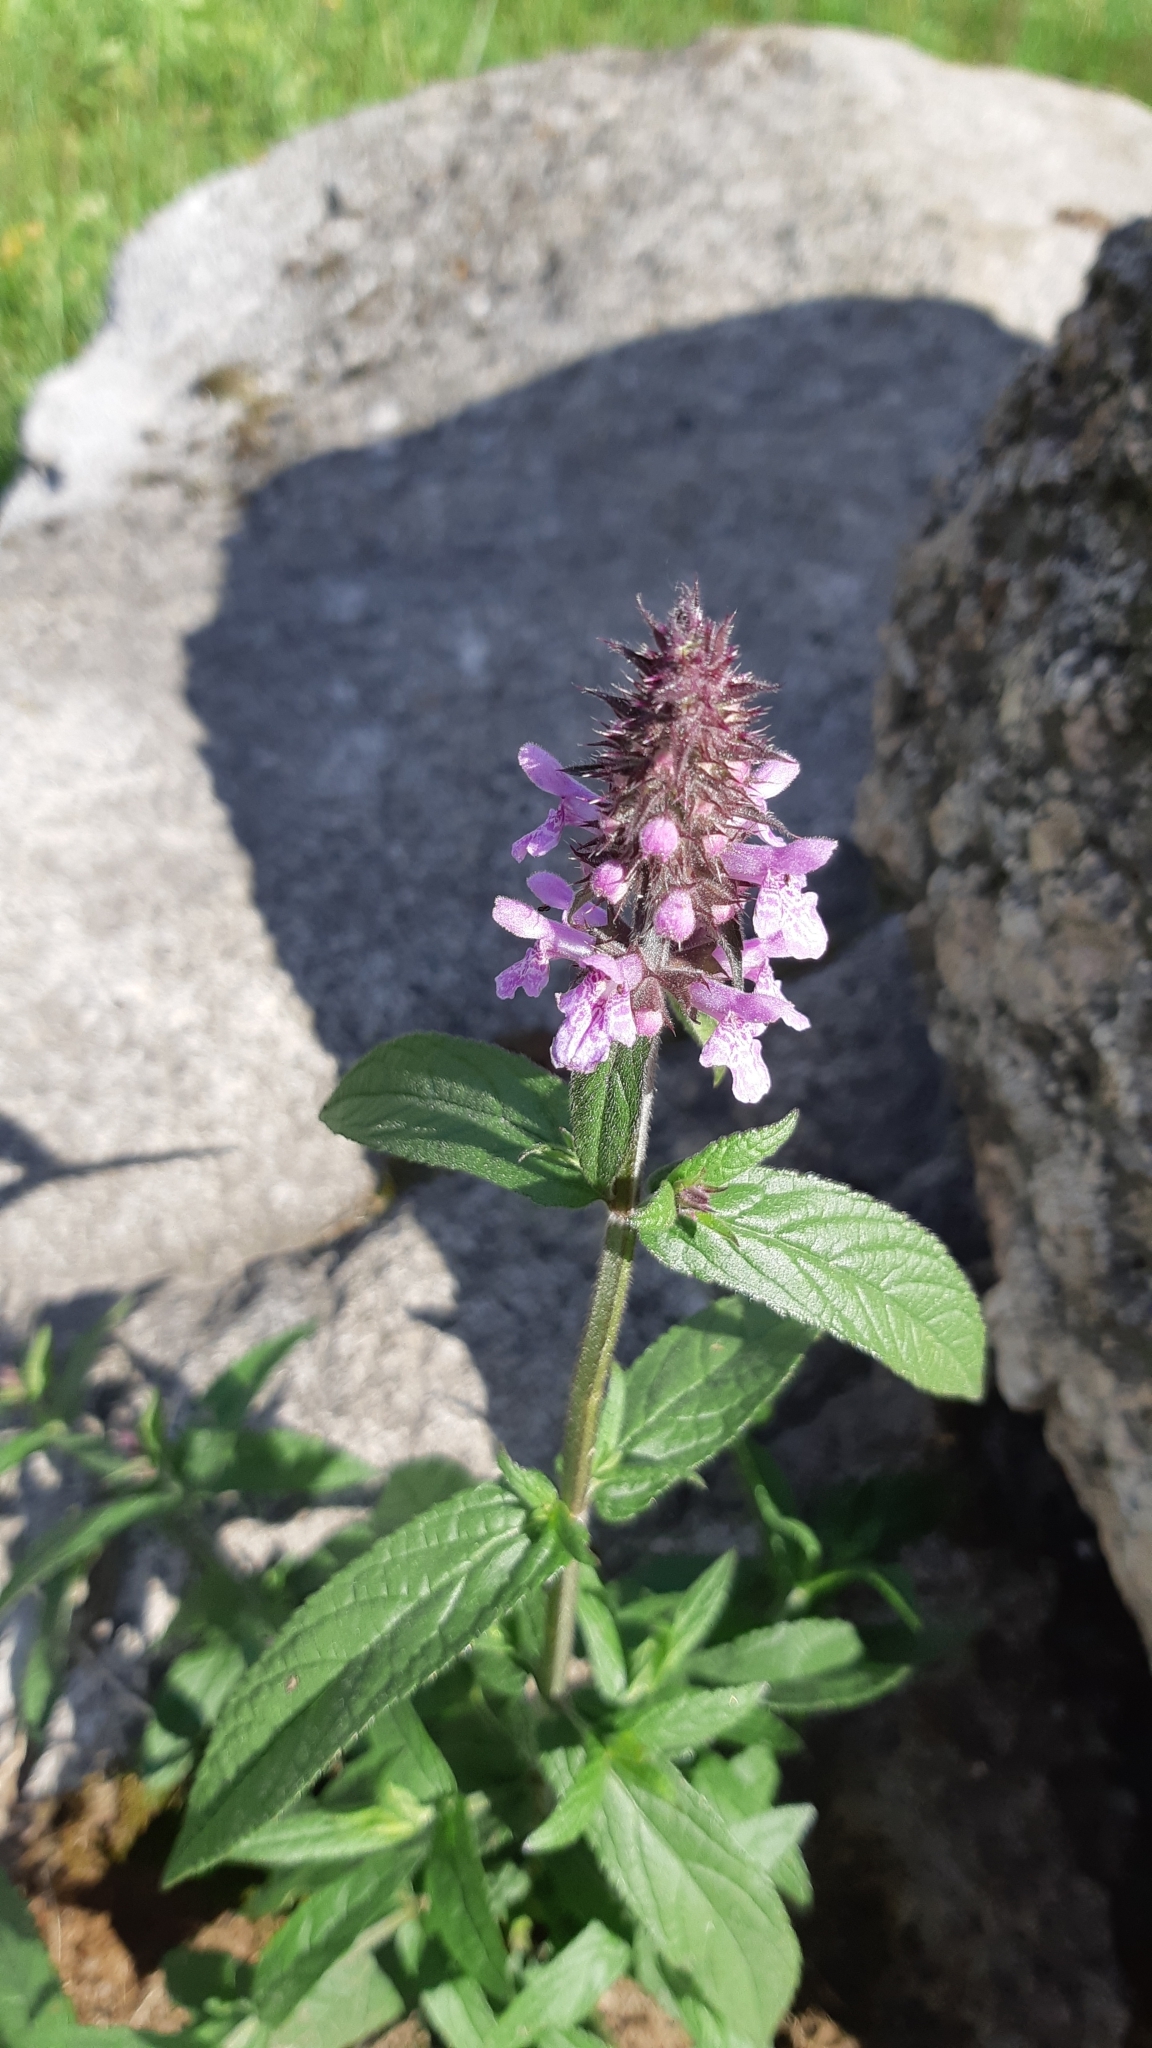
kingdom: Plantae
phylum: Tracheophyta
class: Magnoliopsida
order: Lamiales
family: Lamiaceae
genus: Stachys
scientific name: Stachys palustris
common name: Marsh woundwort
